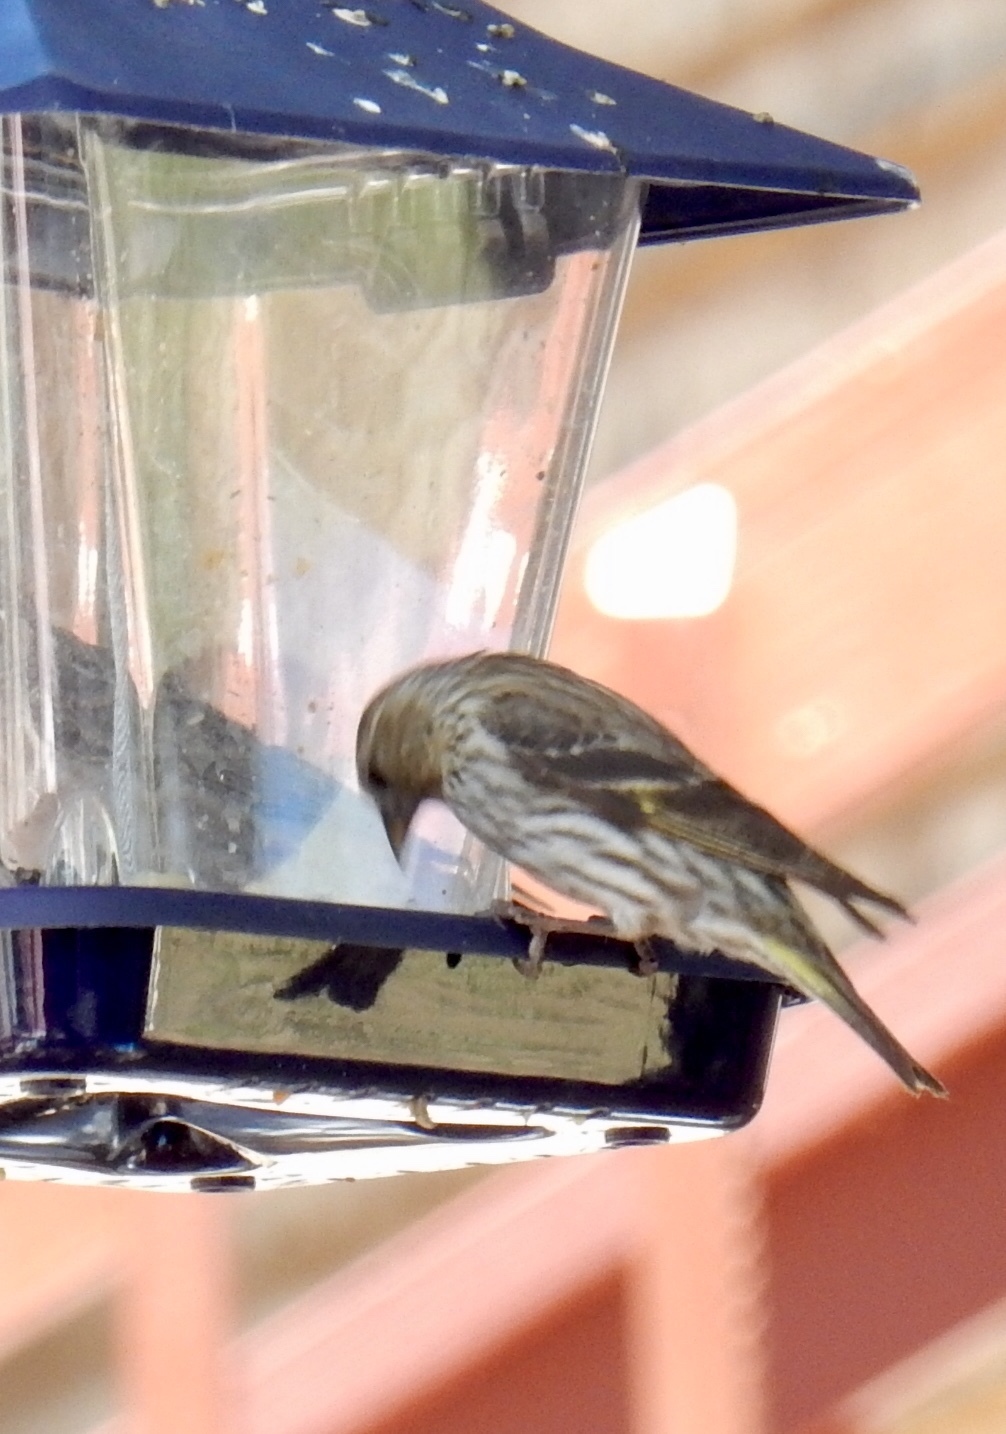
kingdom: Animalia
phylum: Chordata
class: Aves
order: Passeriformes
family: Fringillidae
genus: Spinus
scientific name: Spinus pinus
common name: Pine siskin
